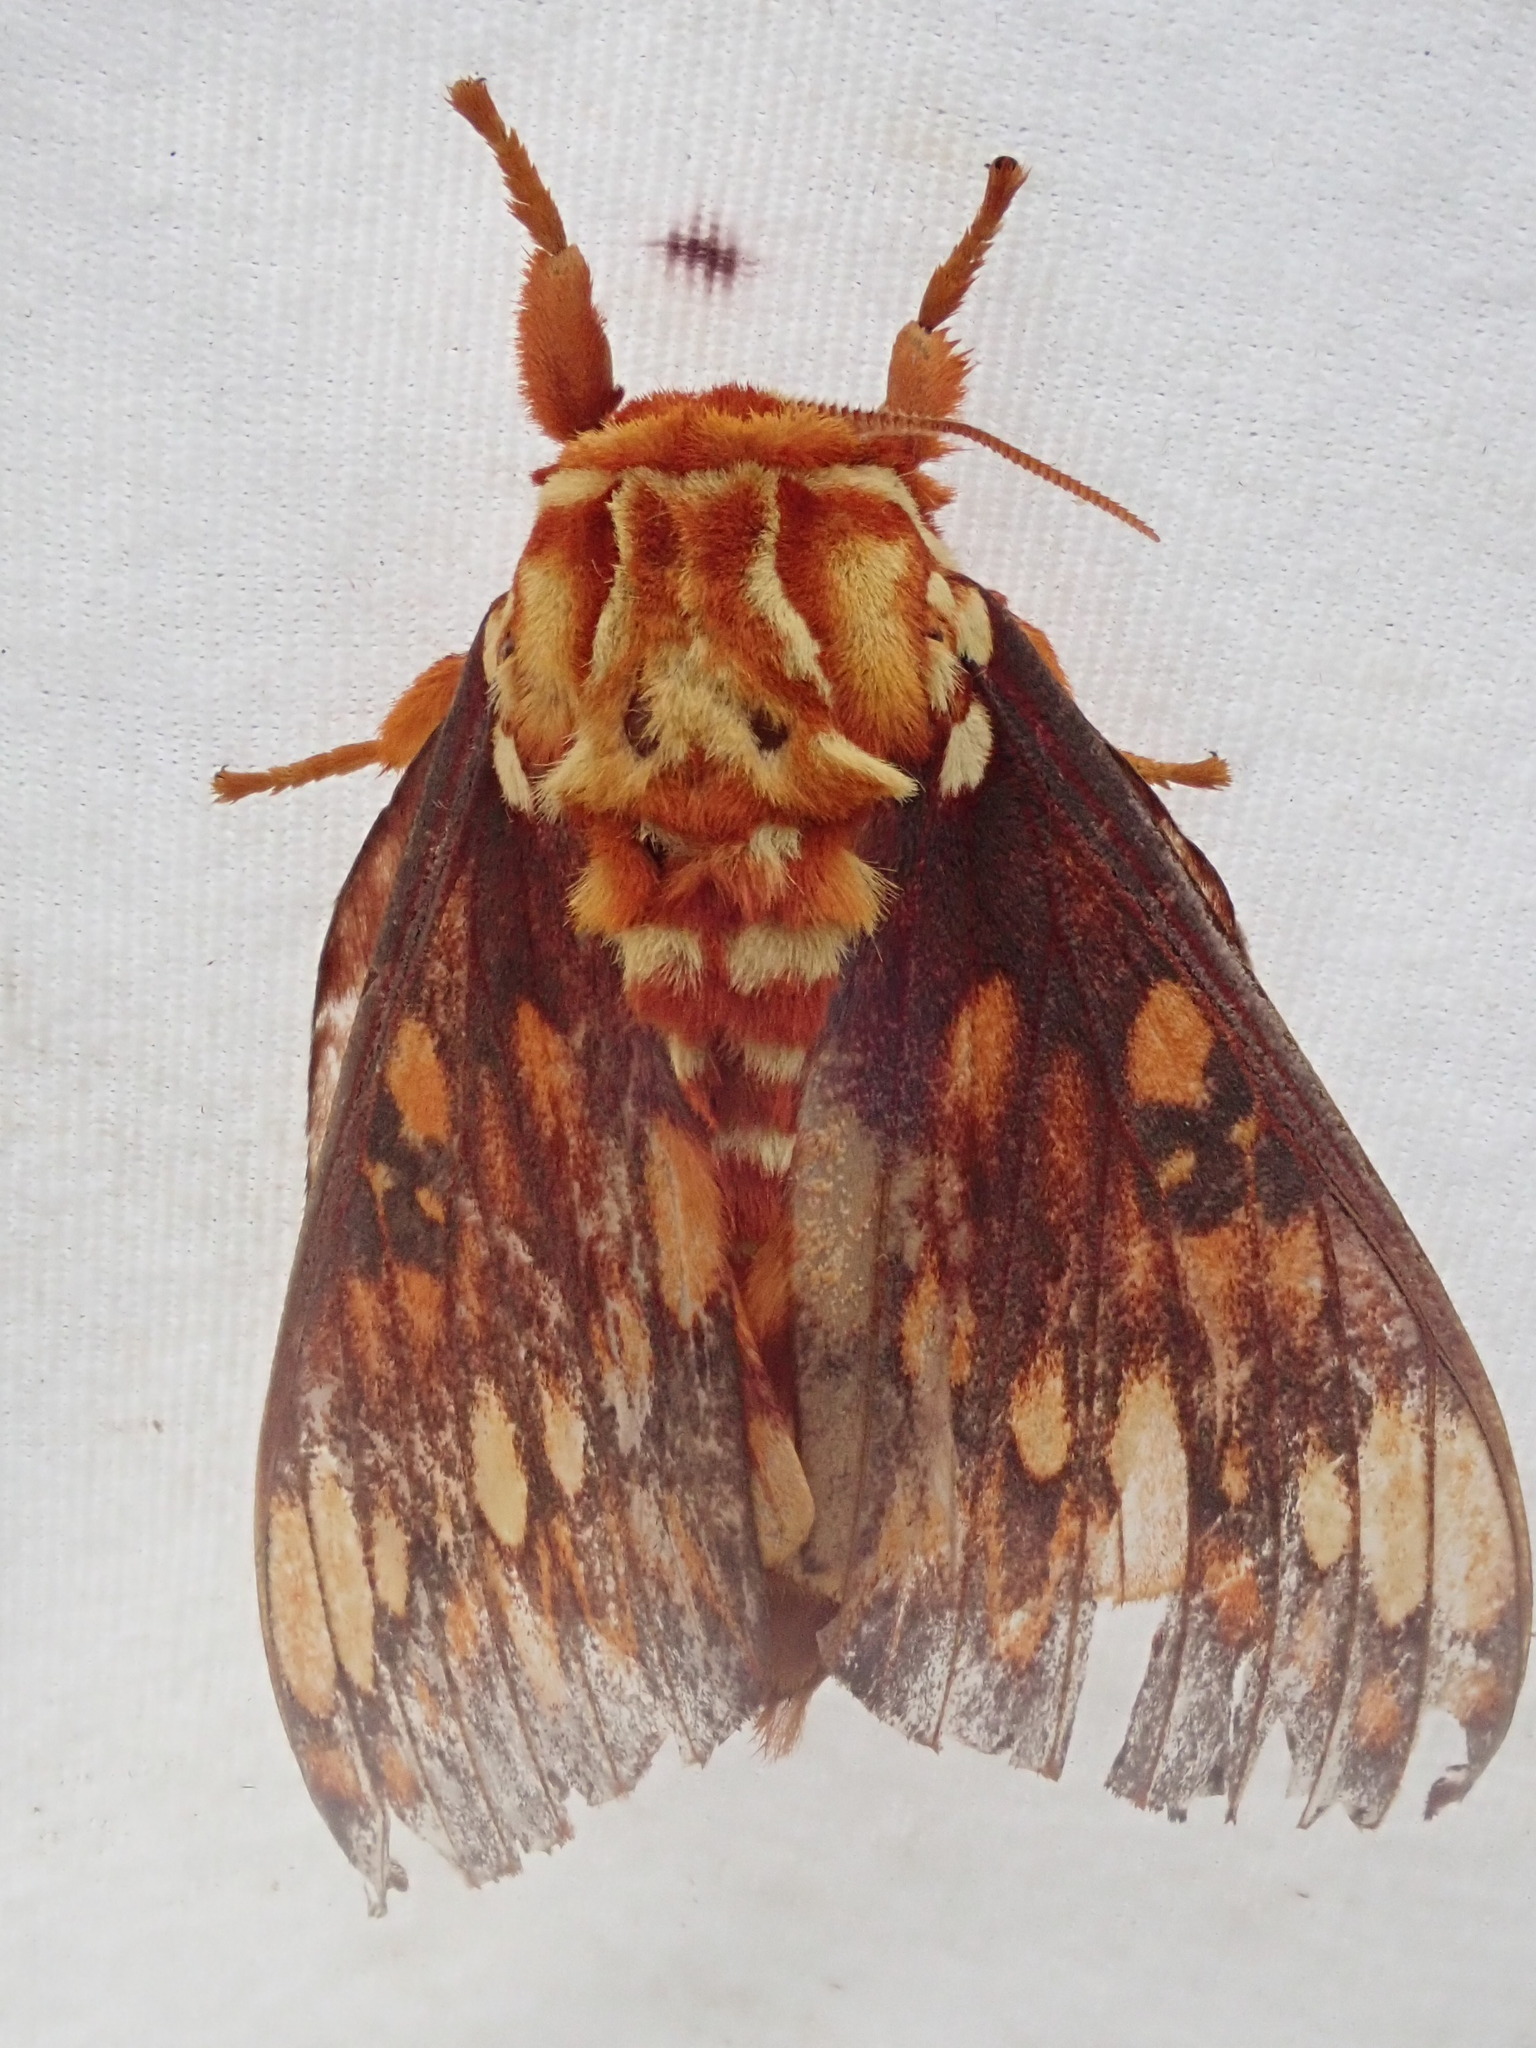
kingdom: Animalia
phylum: Arthropoda
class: Insecta
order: Lepidoptera
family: Saturniidae
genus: Citheronia
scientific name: Citheronia andina
